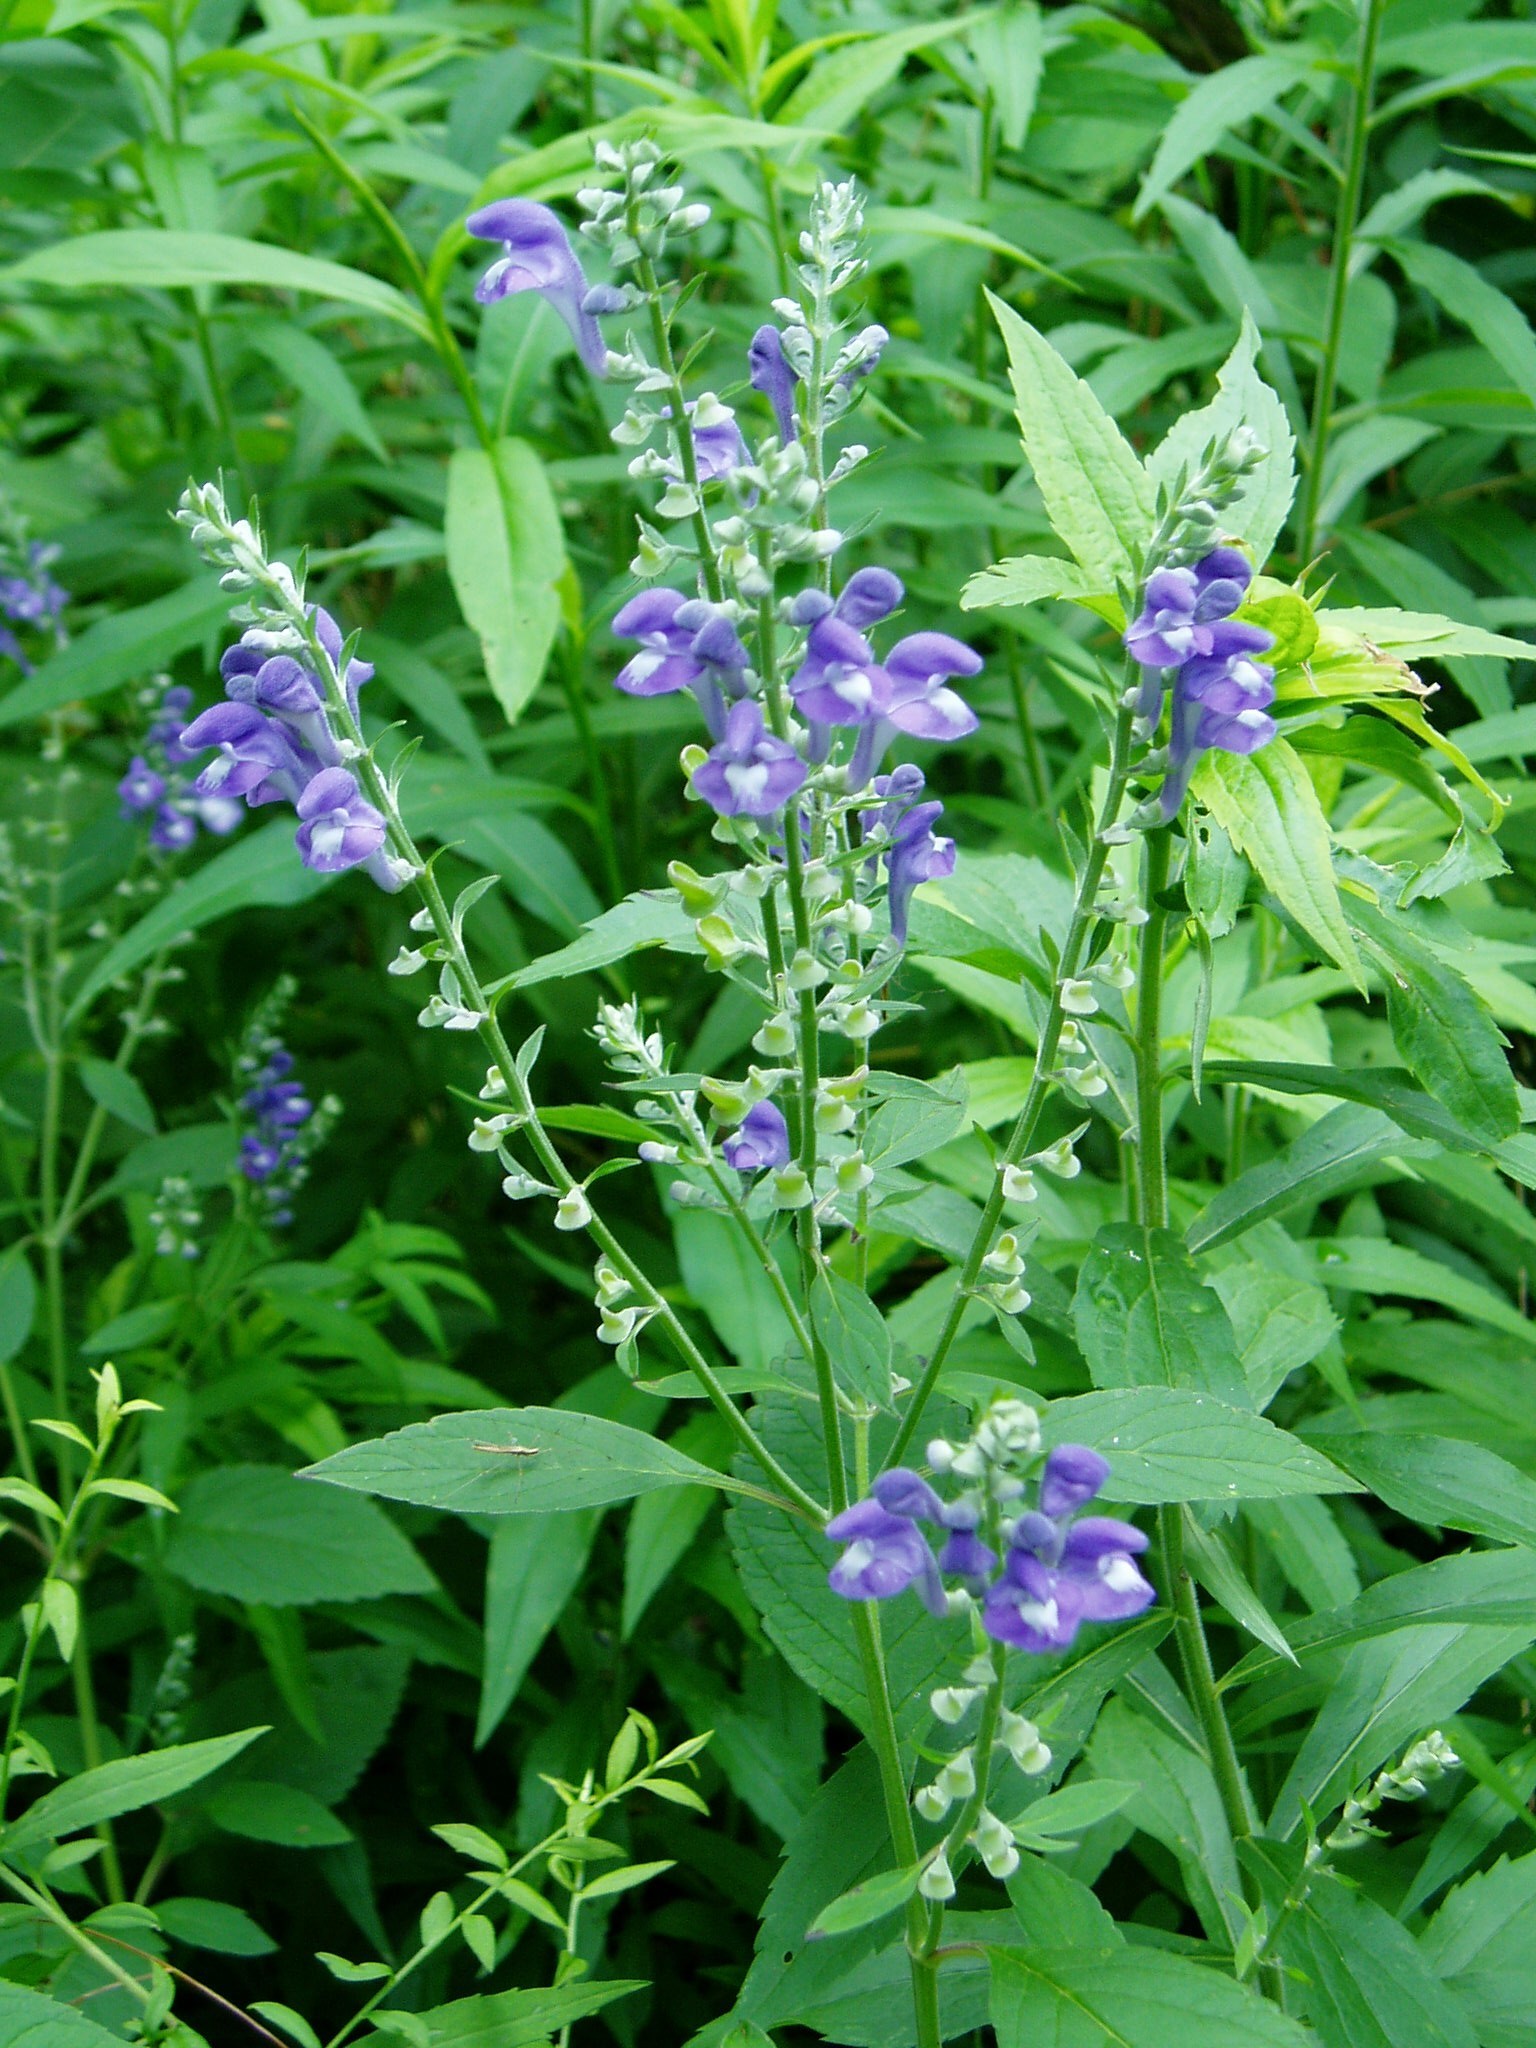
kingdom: Plantae
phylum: Tracheophyta
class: Magnoliopsida
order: Lamiales
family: Lamiaceae
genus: Scutellaria
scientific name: Scutellaria incana
